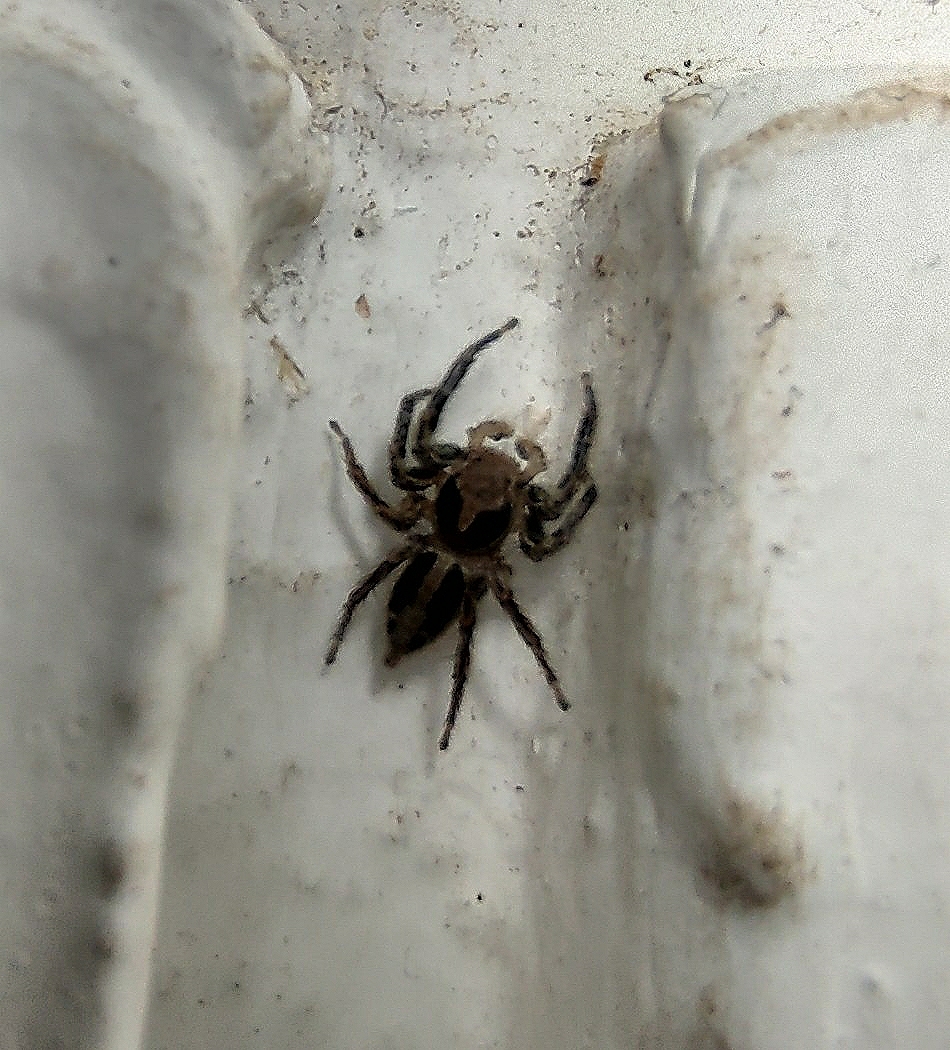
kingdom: Animalia
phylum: Arthropoda
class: Arachnida
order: Araneae
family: Salticidae
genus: Plexippus
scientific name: Plexippus petersi
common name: Jumping spider
